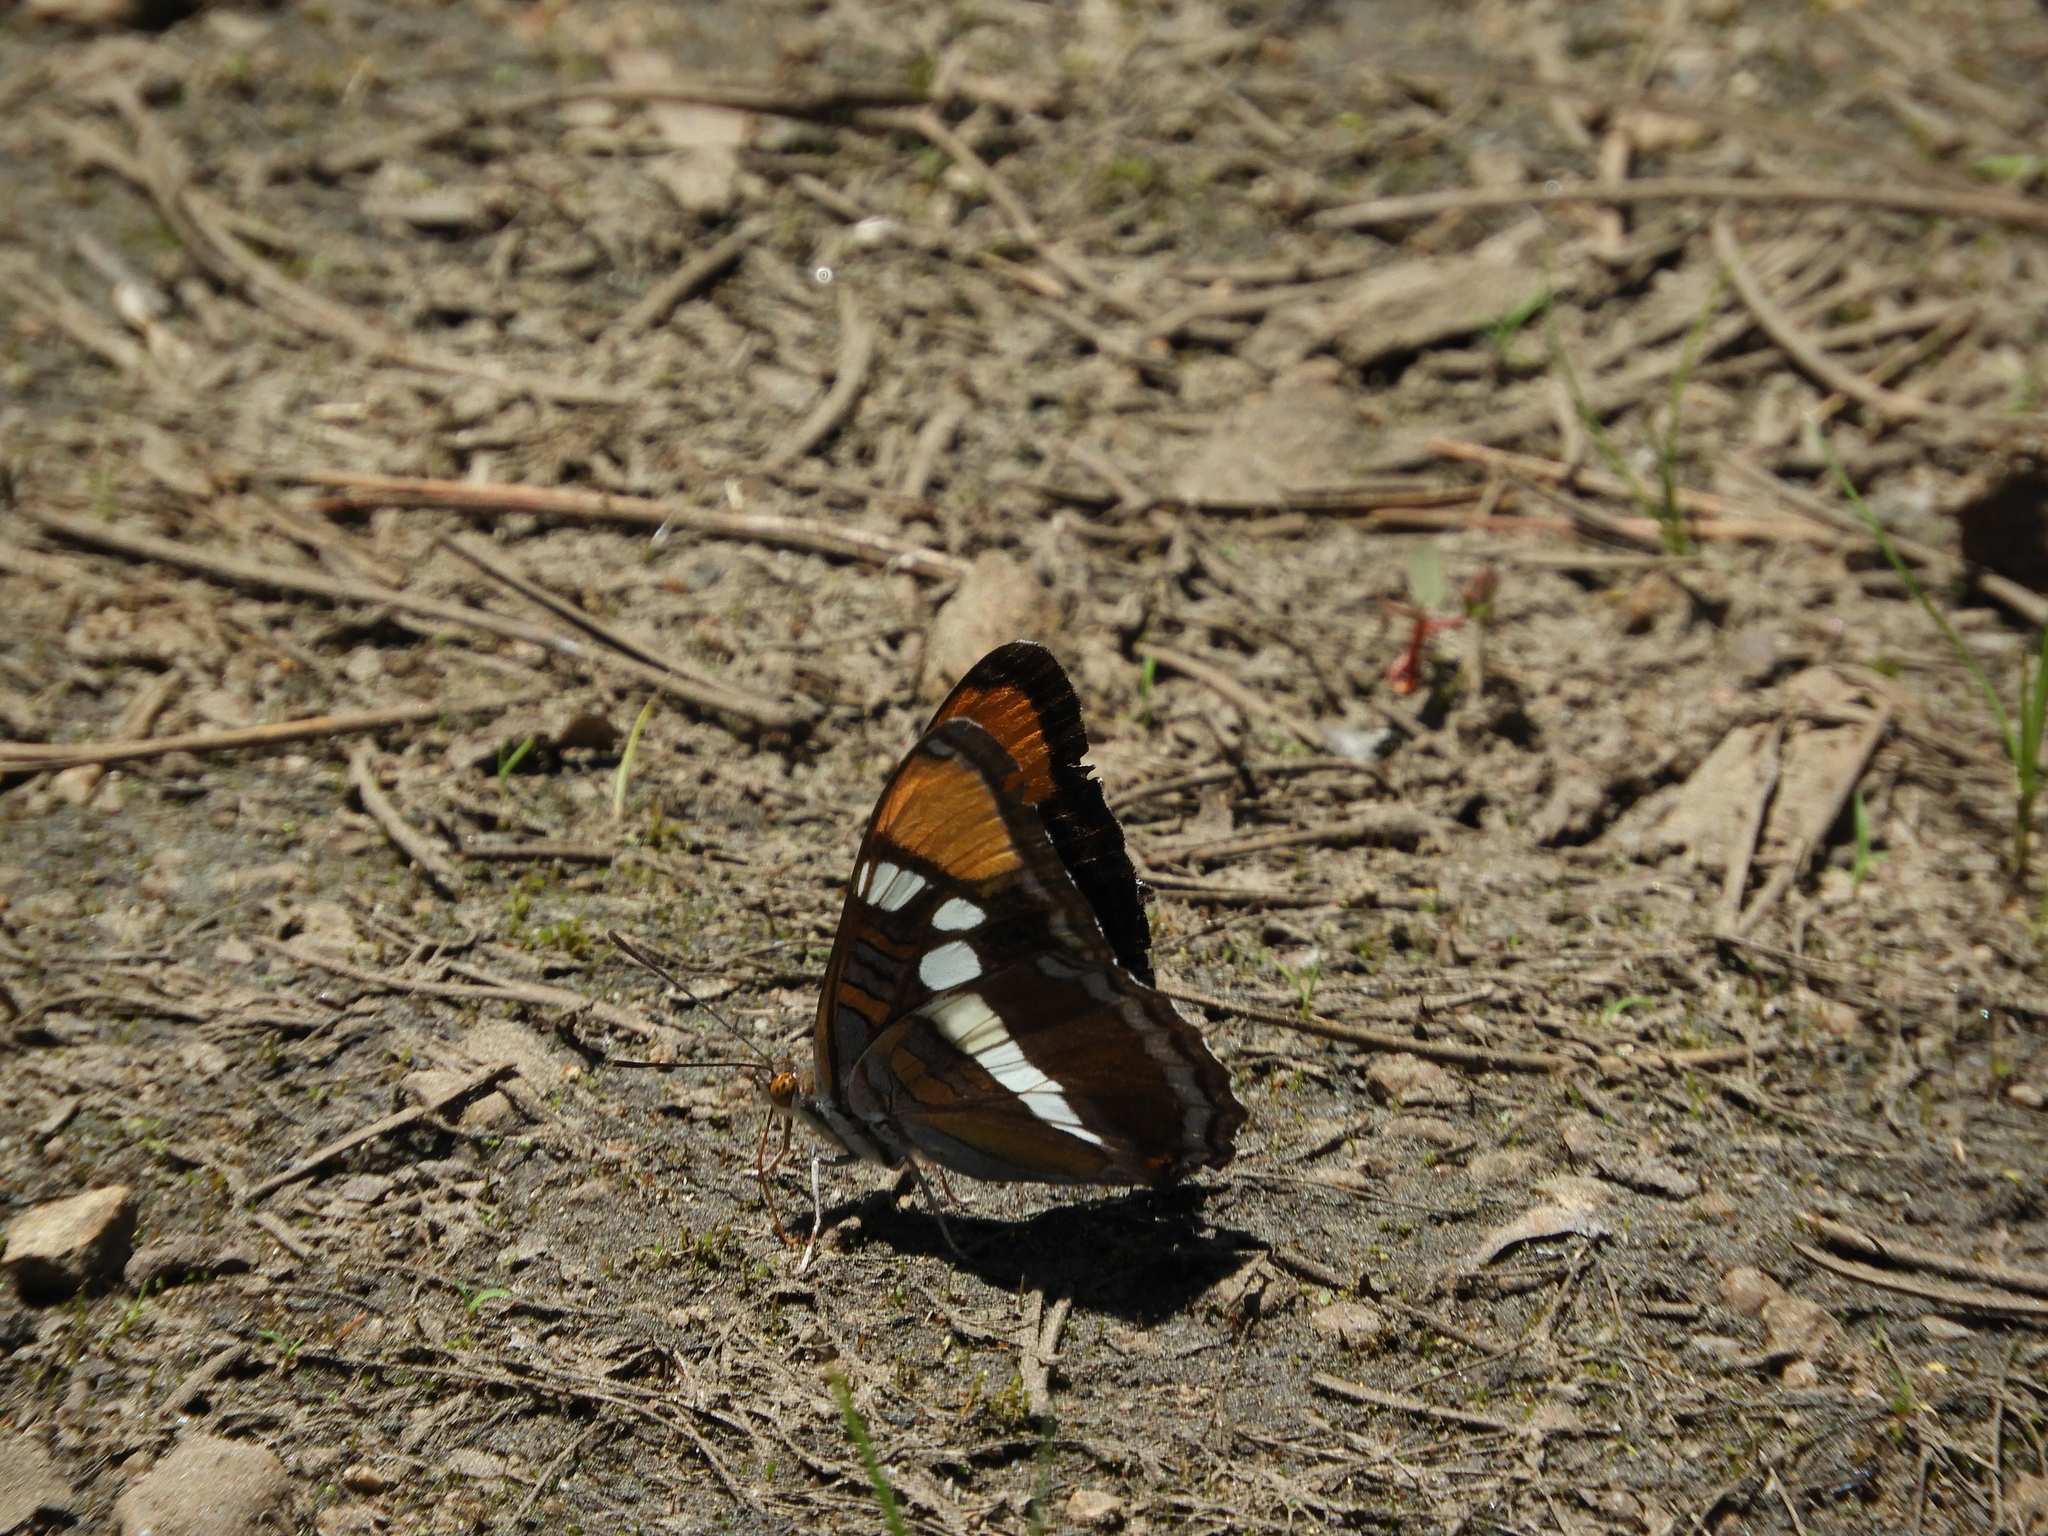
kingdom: Animalia
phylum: Arthropoda
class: Insecta
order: Lepidoptera
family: Nymphalidae
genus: Limenitis
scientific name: Limenitis bredowii
